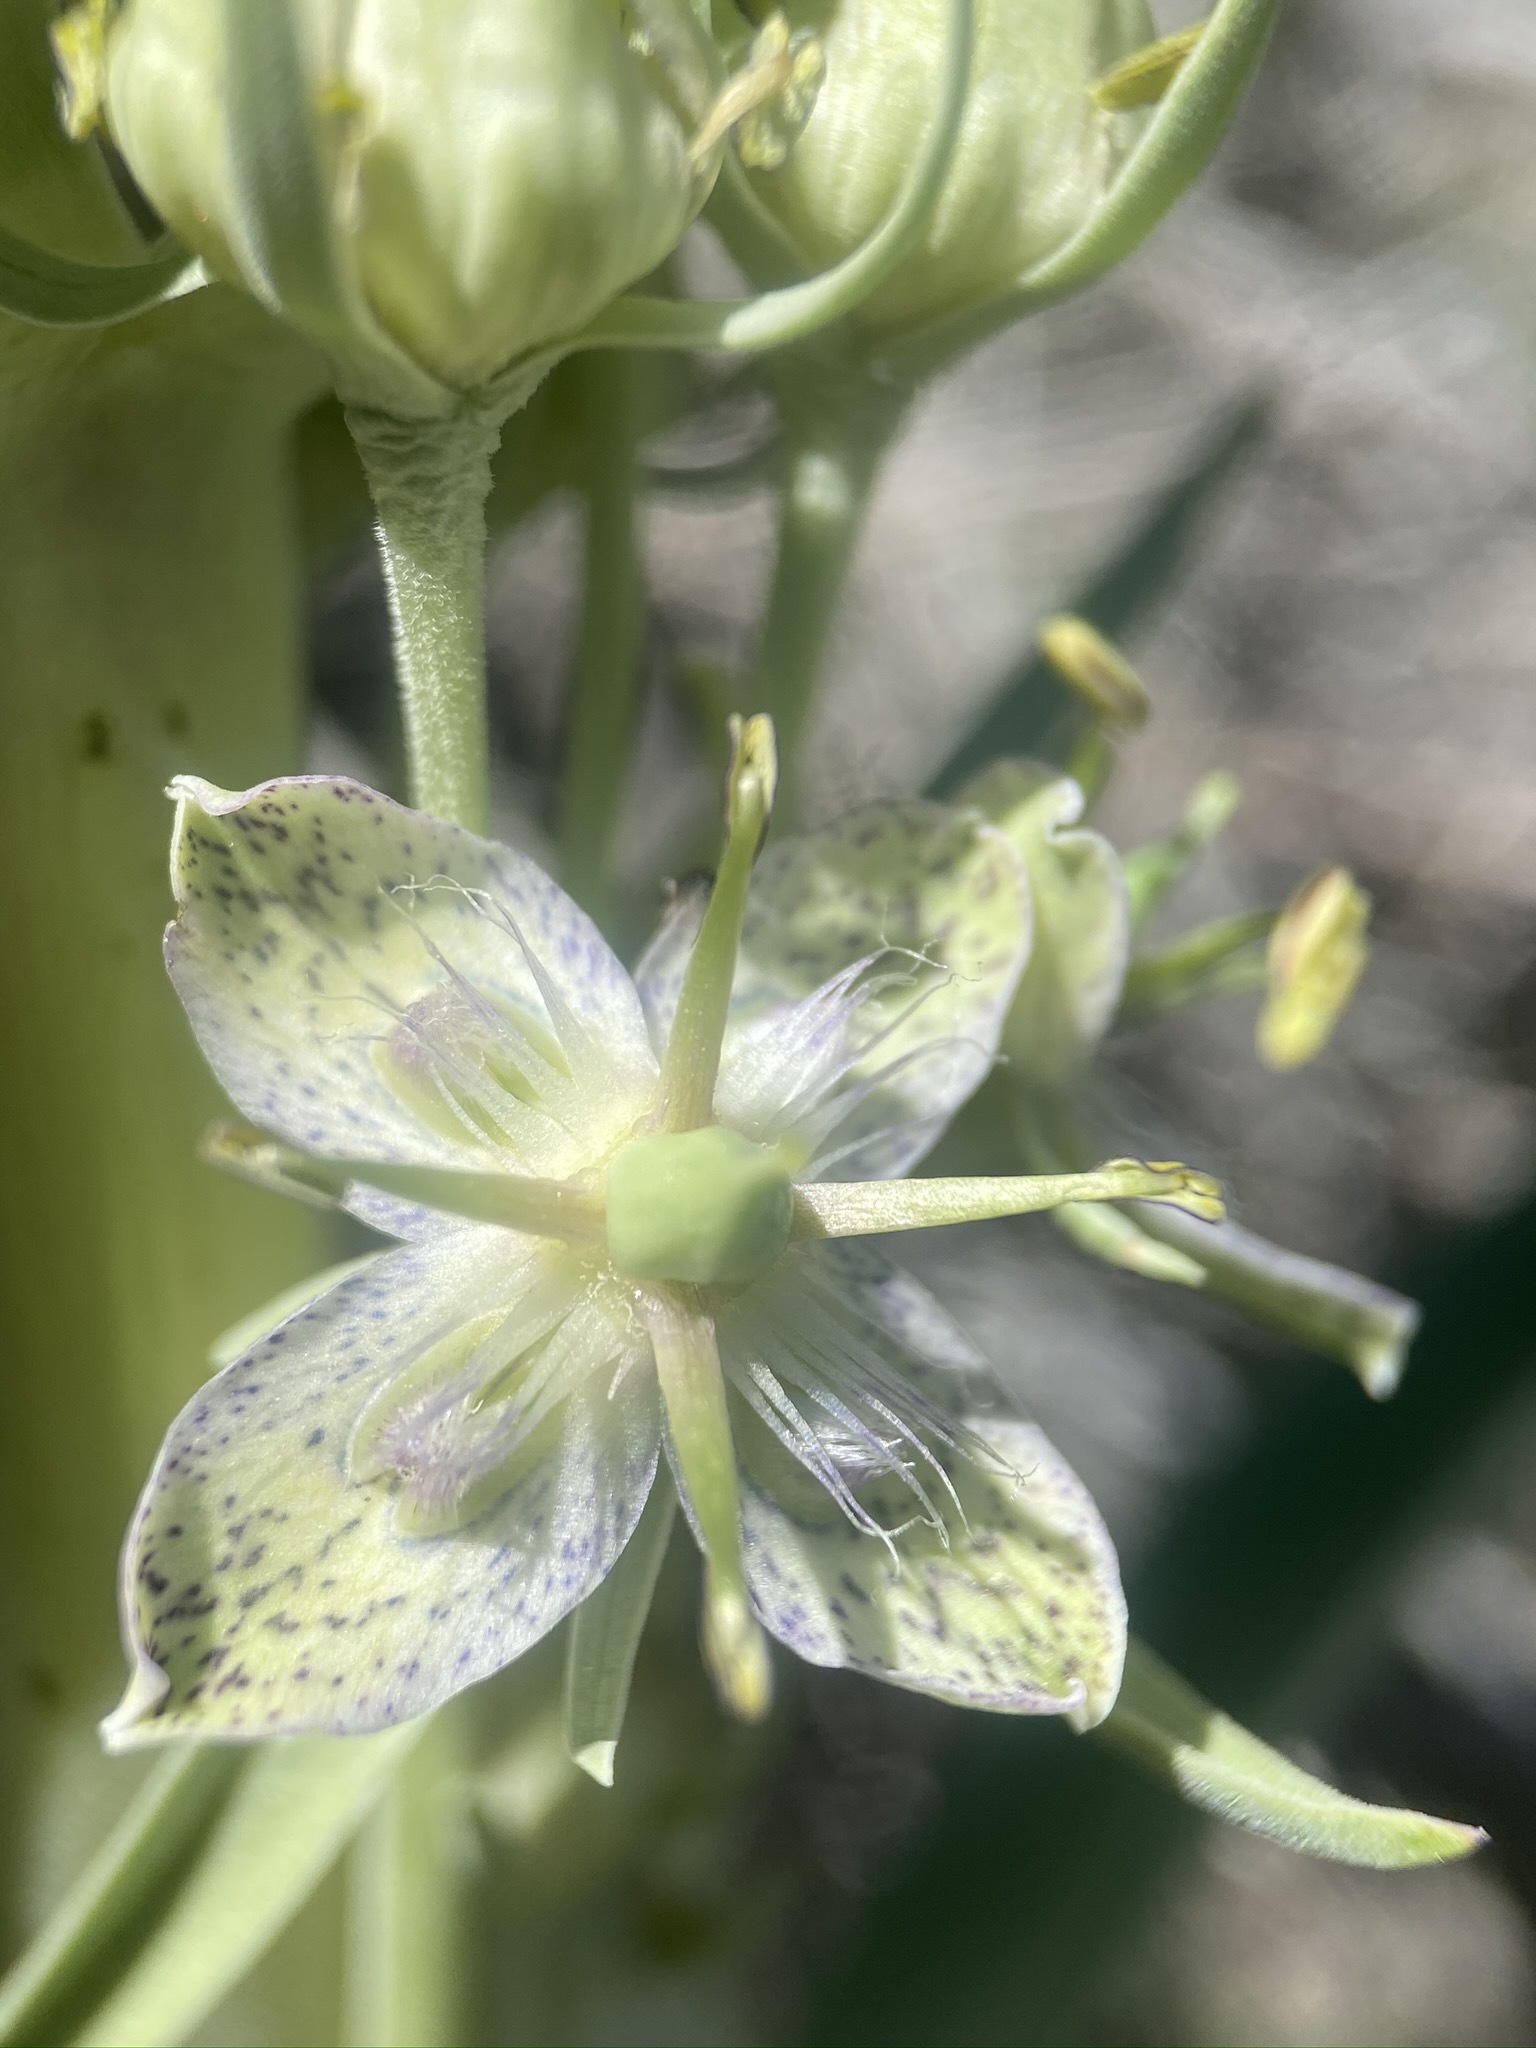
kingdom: Plantae
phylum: Tracheophyta
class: Magnoliopsida
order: Gentianales
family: Gentianaceae
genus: Frasera
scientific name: Frasera speciosa
